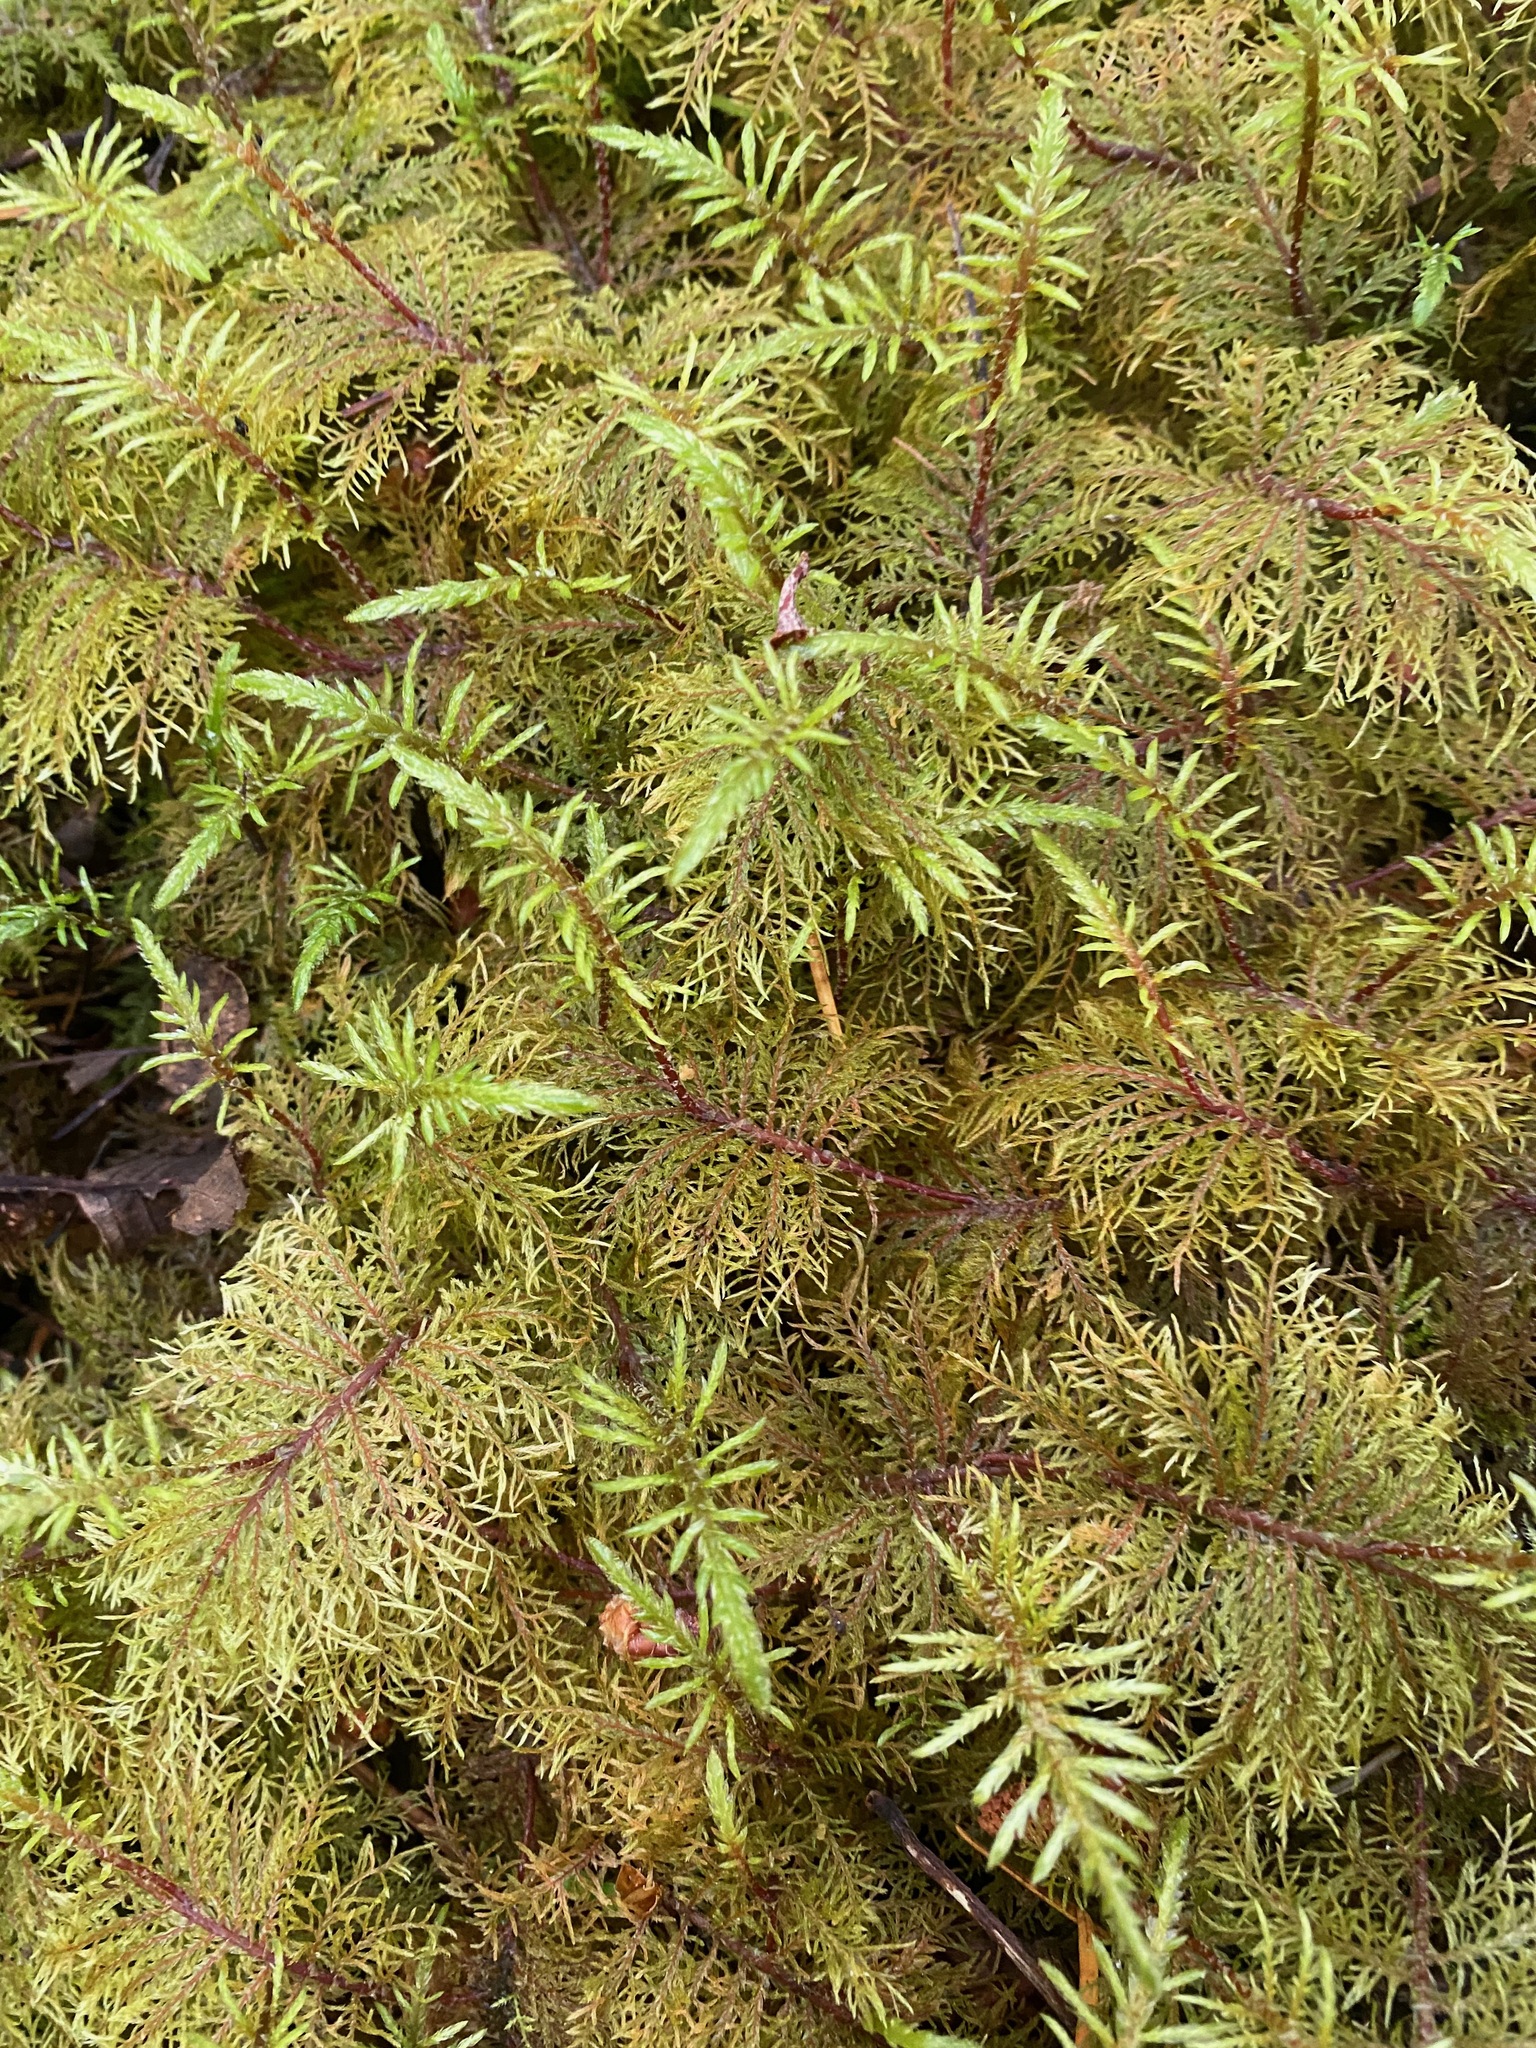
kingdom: Plantae
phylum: Bryophyta
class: Bryopsida
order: Hypnales
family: Hylocomiaceae
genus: Hylocomium
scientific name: Hylocomium splendens
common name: Stairstep moss
